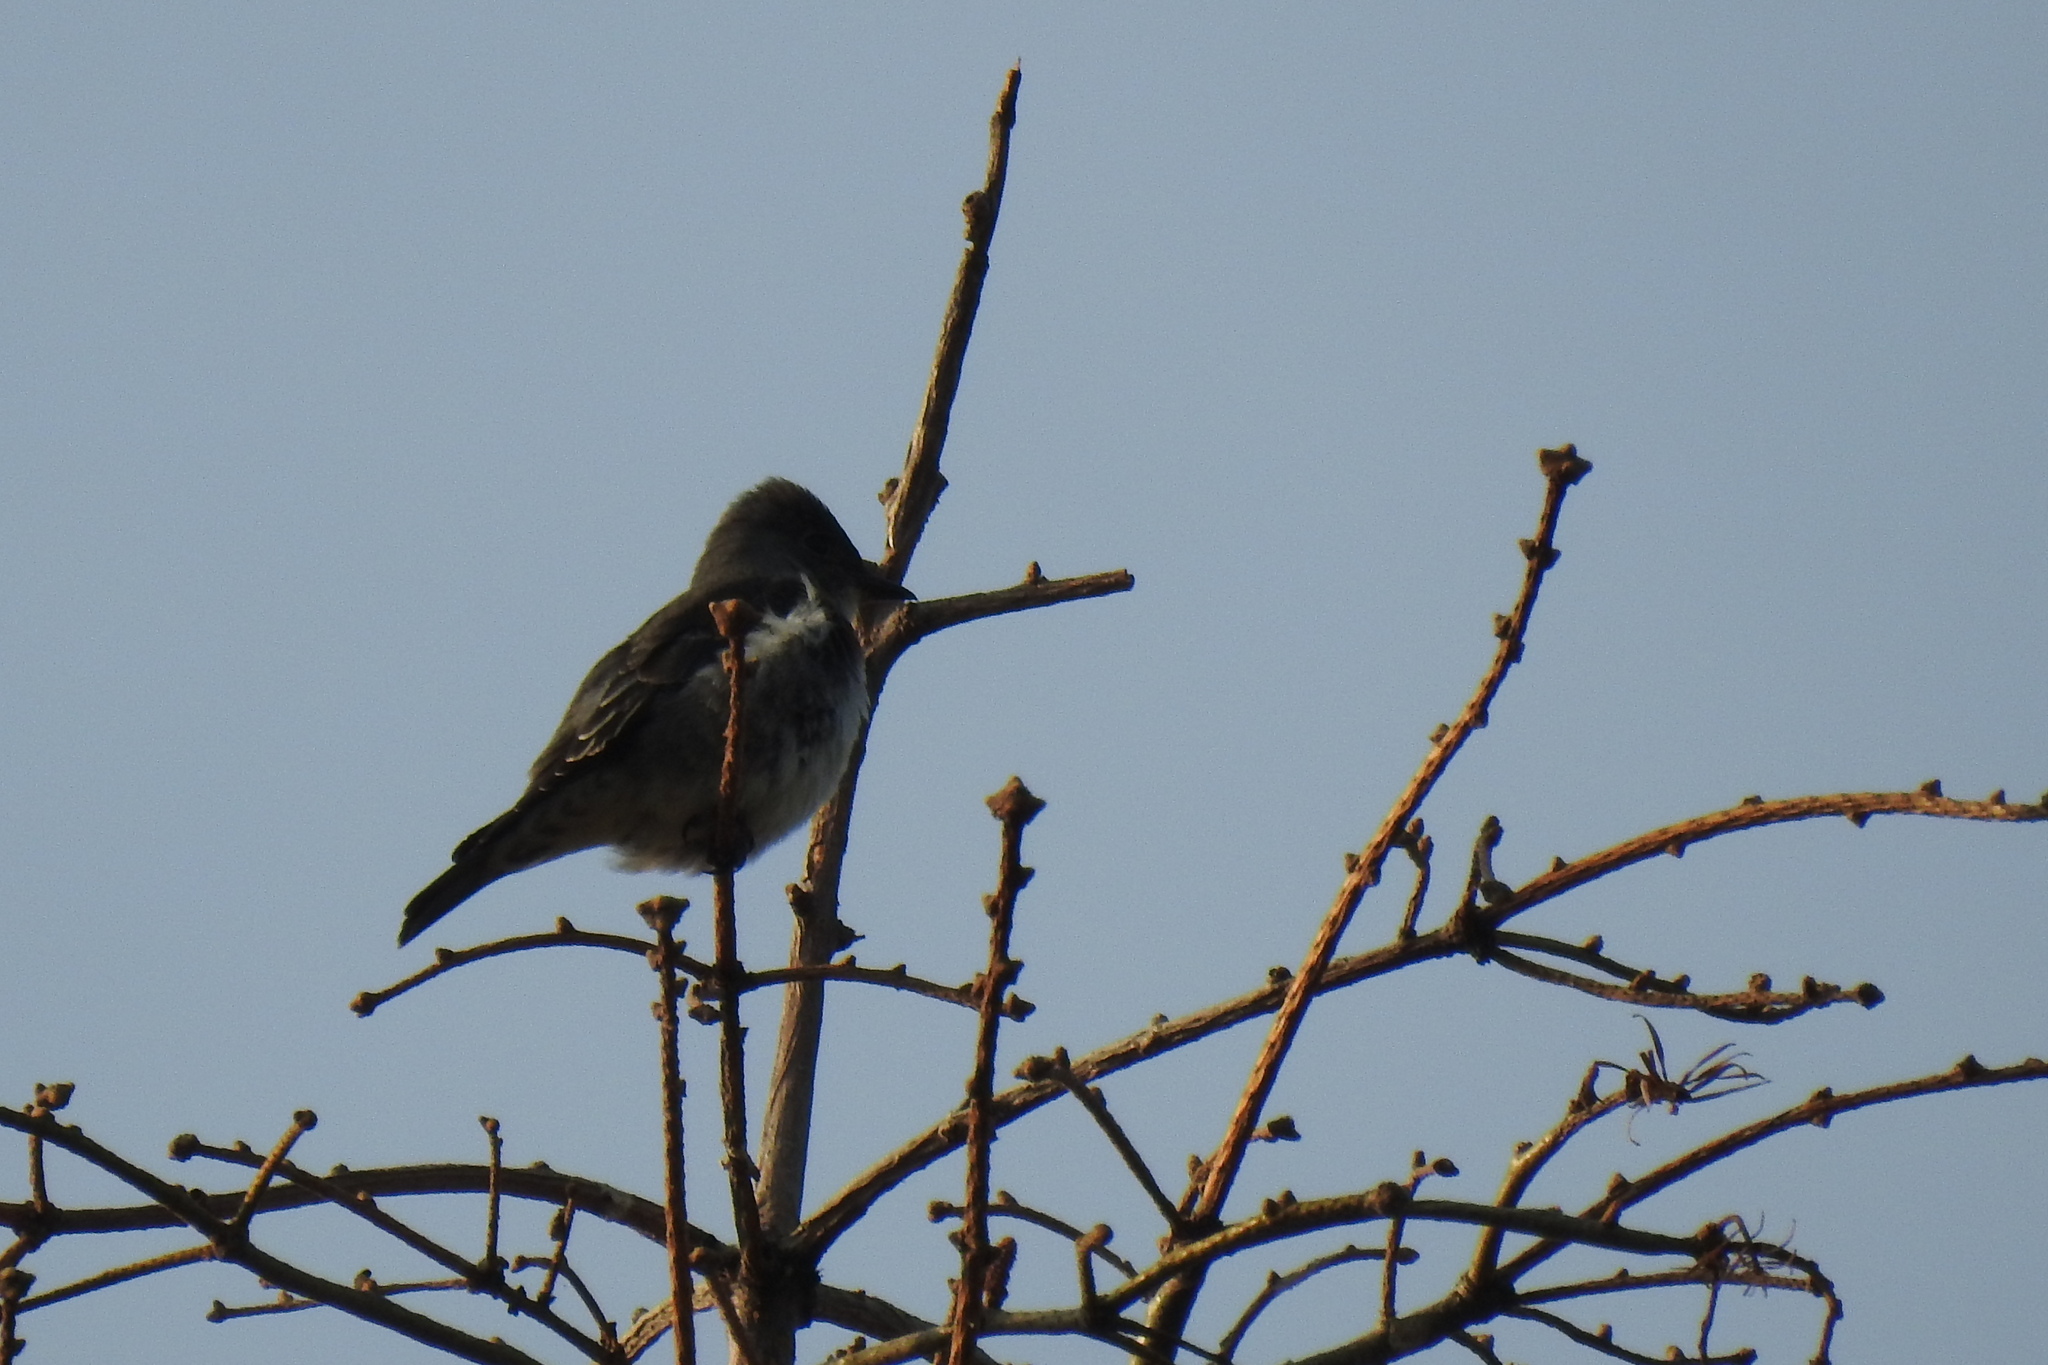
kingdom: Animalia
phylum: Chordata
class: Aves
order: Passeriformes
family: Tyrannidae
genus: Contopus
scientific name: Contopus cooperi
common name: Olive-sided flycatcher
